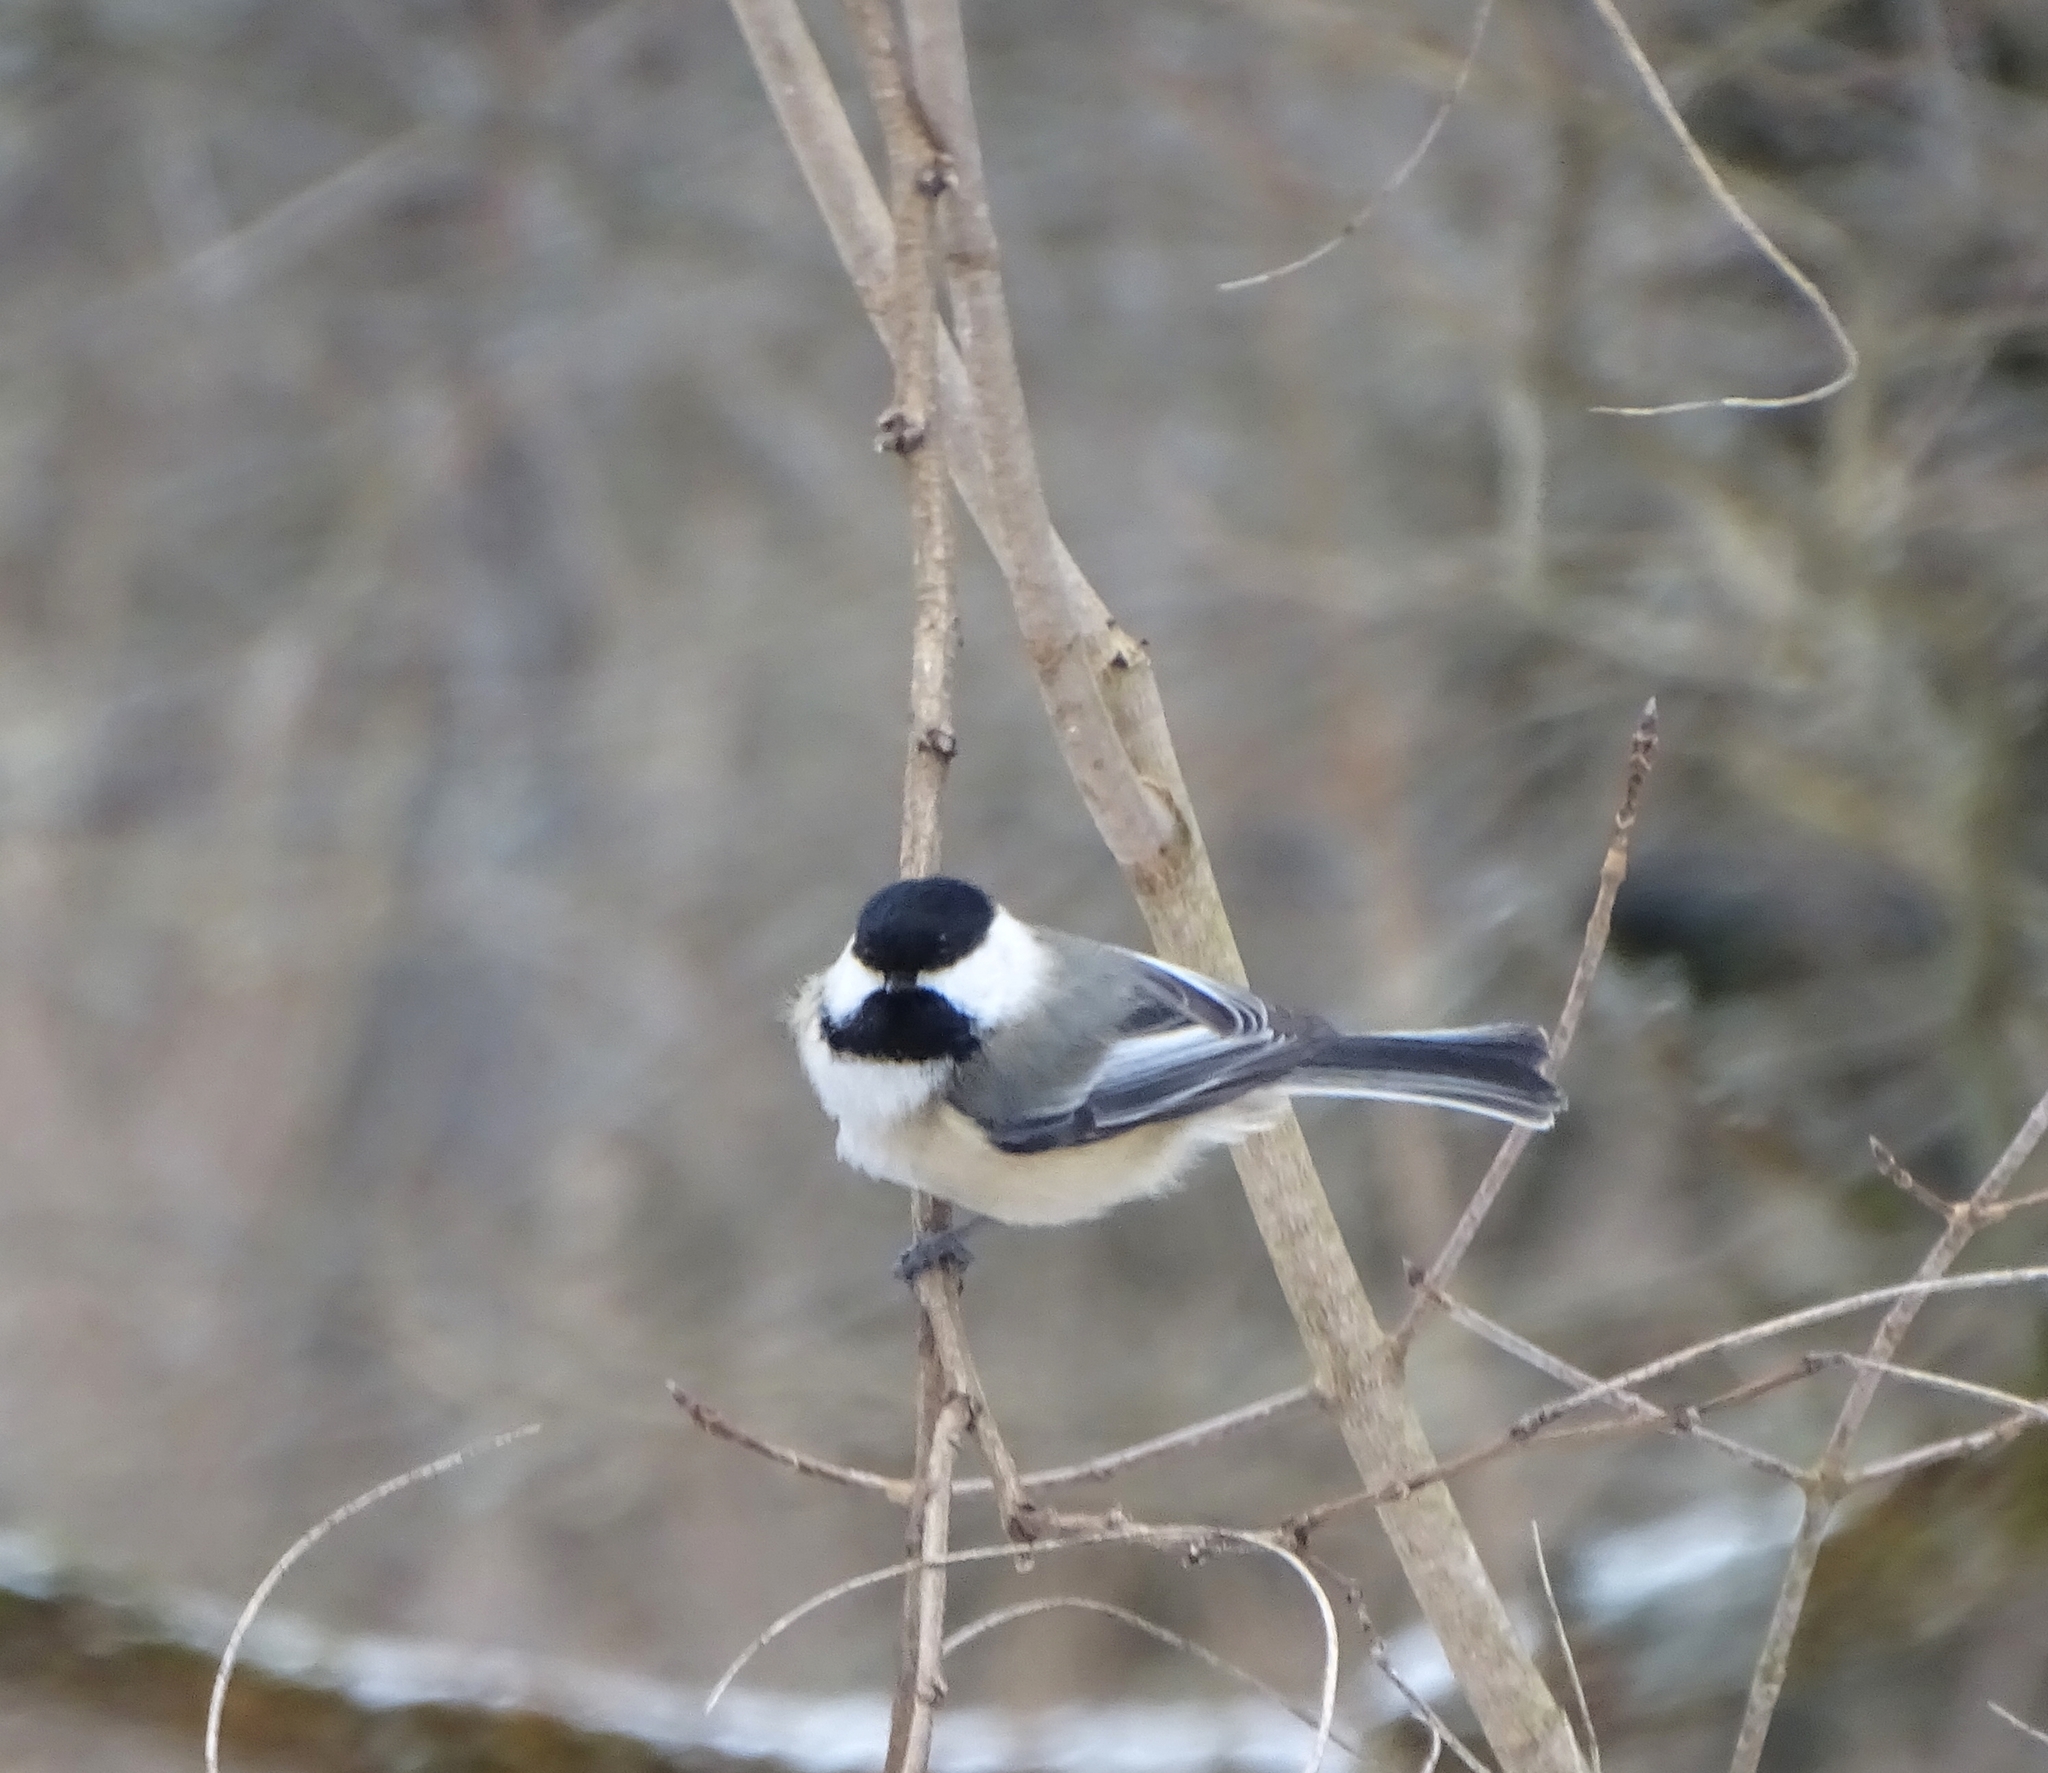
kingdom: Animalia
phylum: Chordata
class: Aves
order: Passeriformes
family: Paridae
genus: Poecile
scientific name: Poecile atricapillus
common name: Black-capped chickadee
